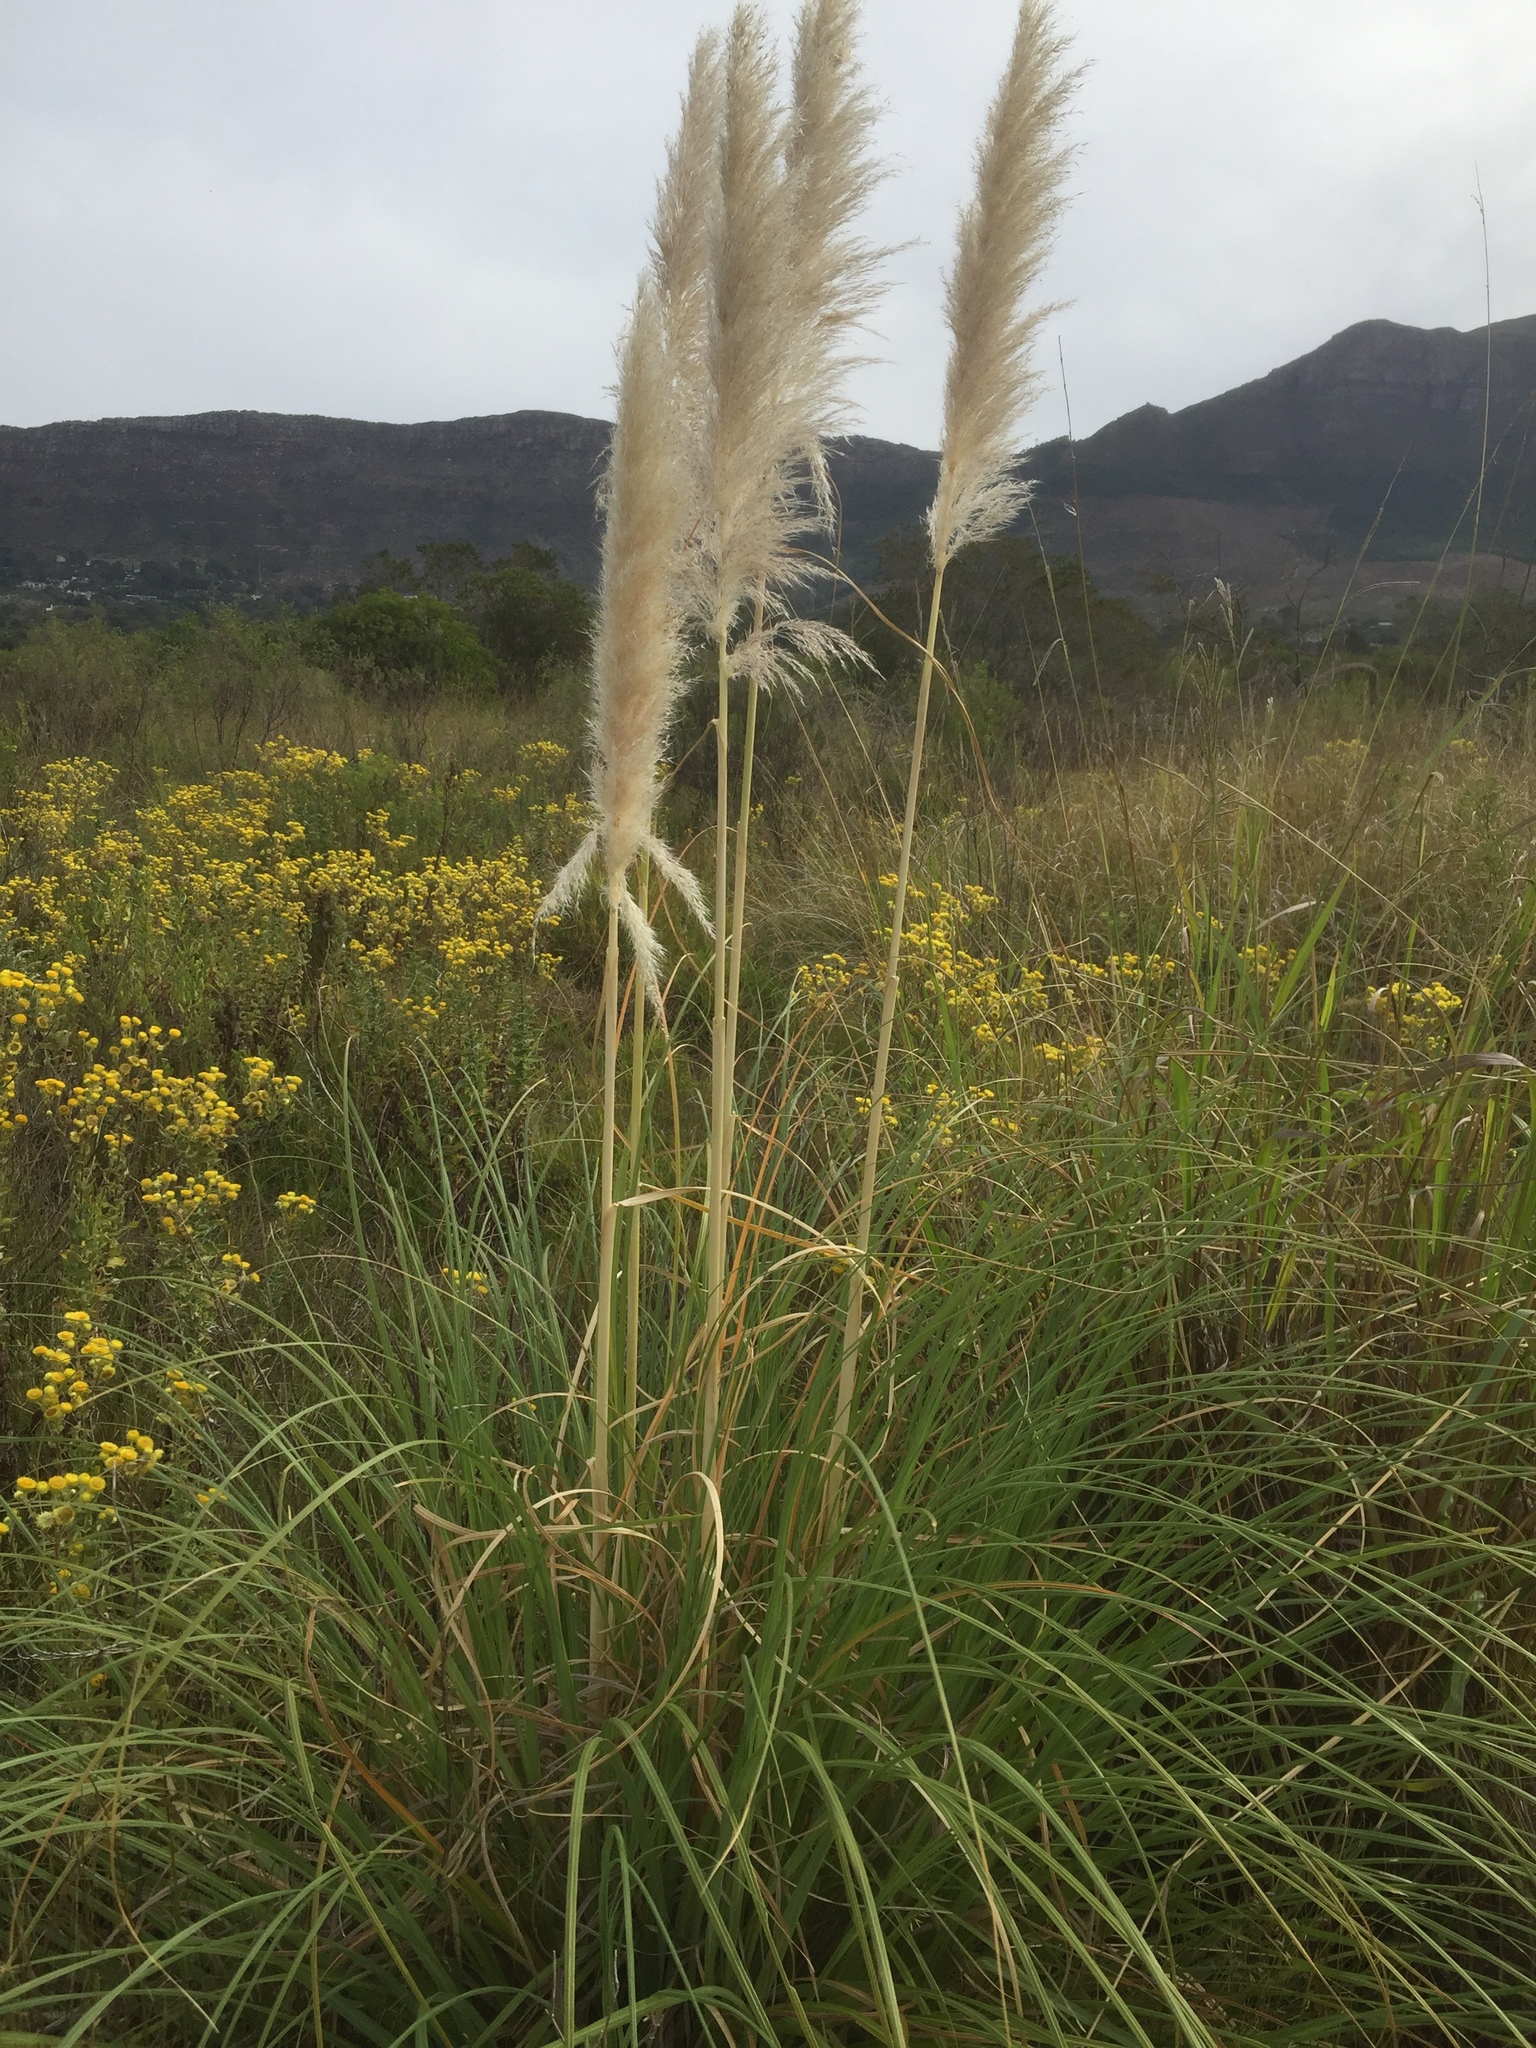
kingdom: Plantae
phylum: Tracheophyta
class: Liliopsida
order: Poales
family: Poaceae
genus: Cortaderia
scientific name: Cortaderia selloana
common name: Uruguayan pampas grass
